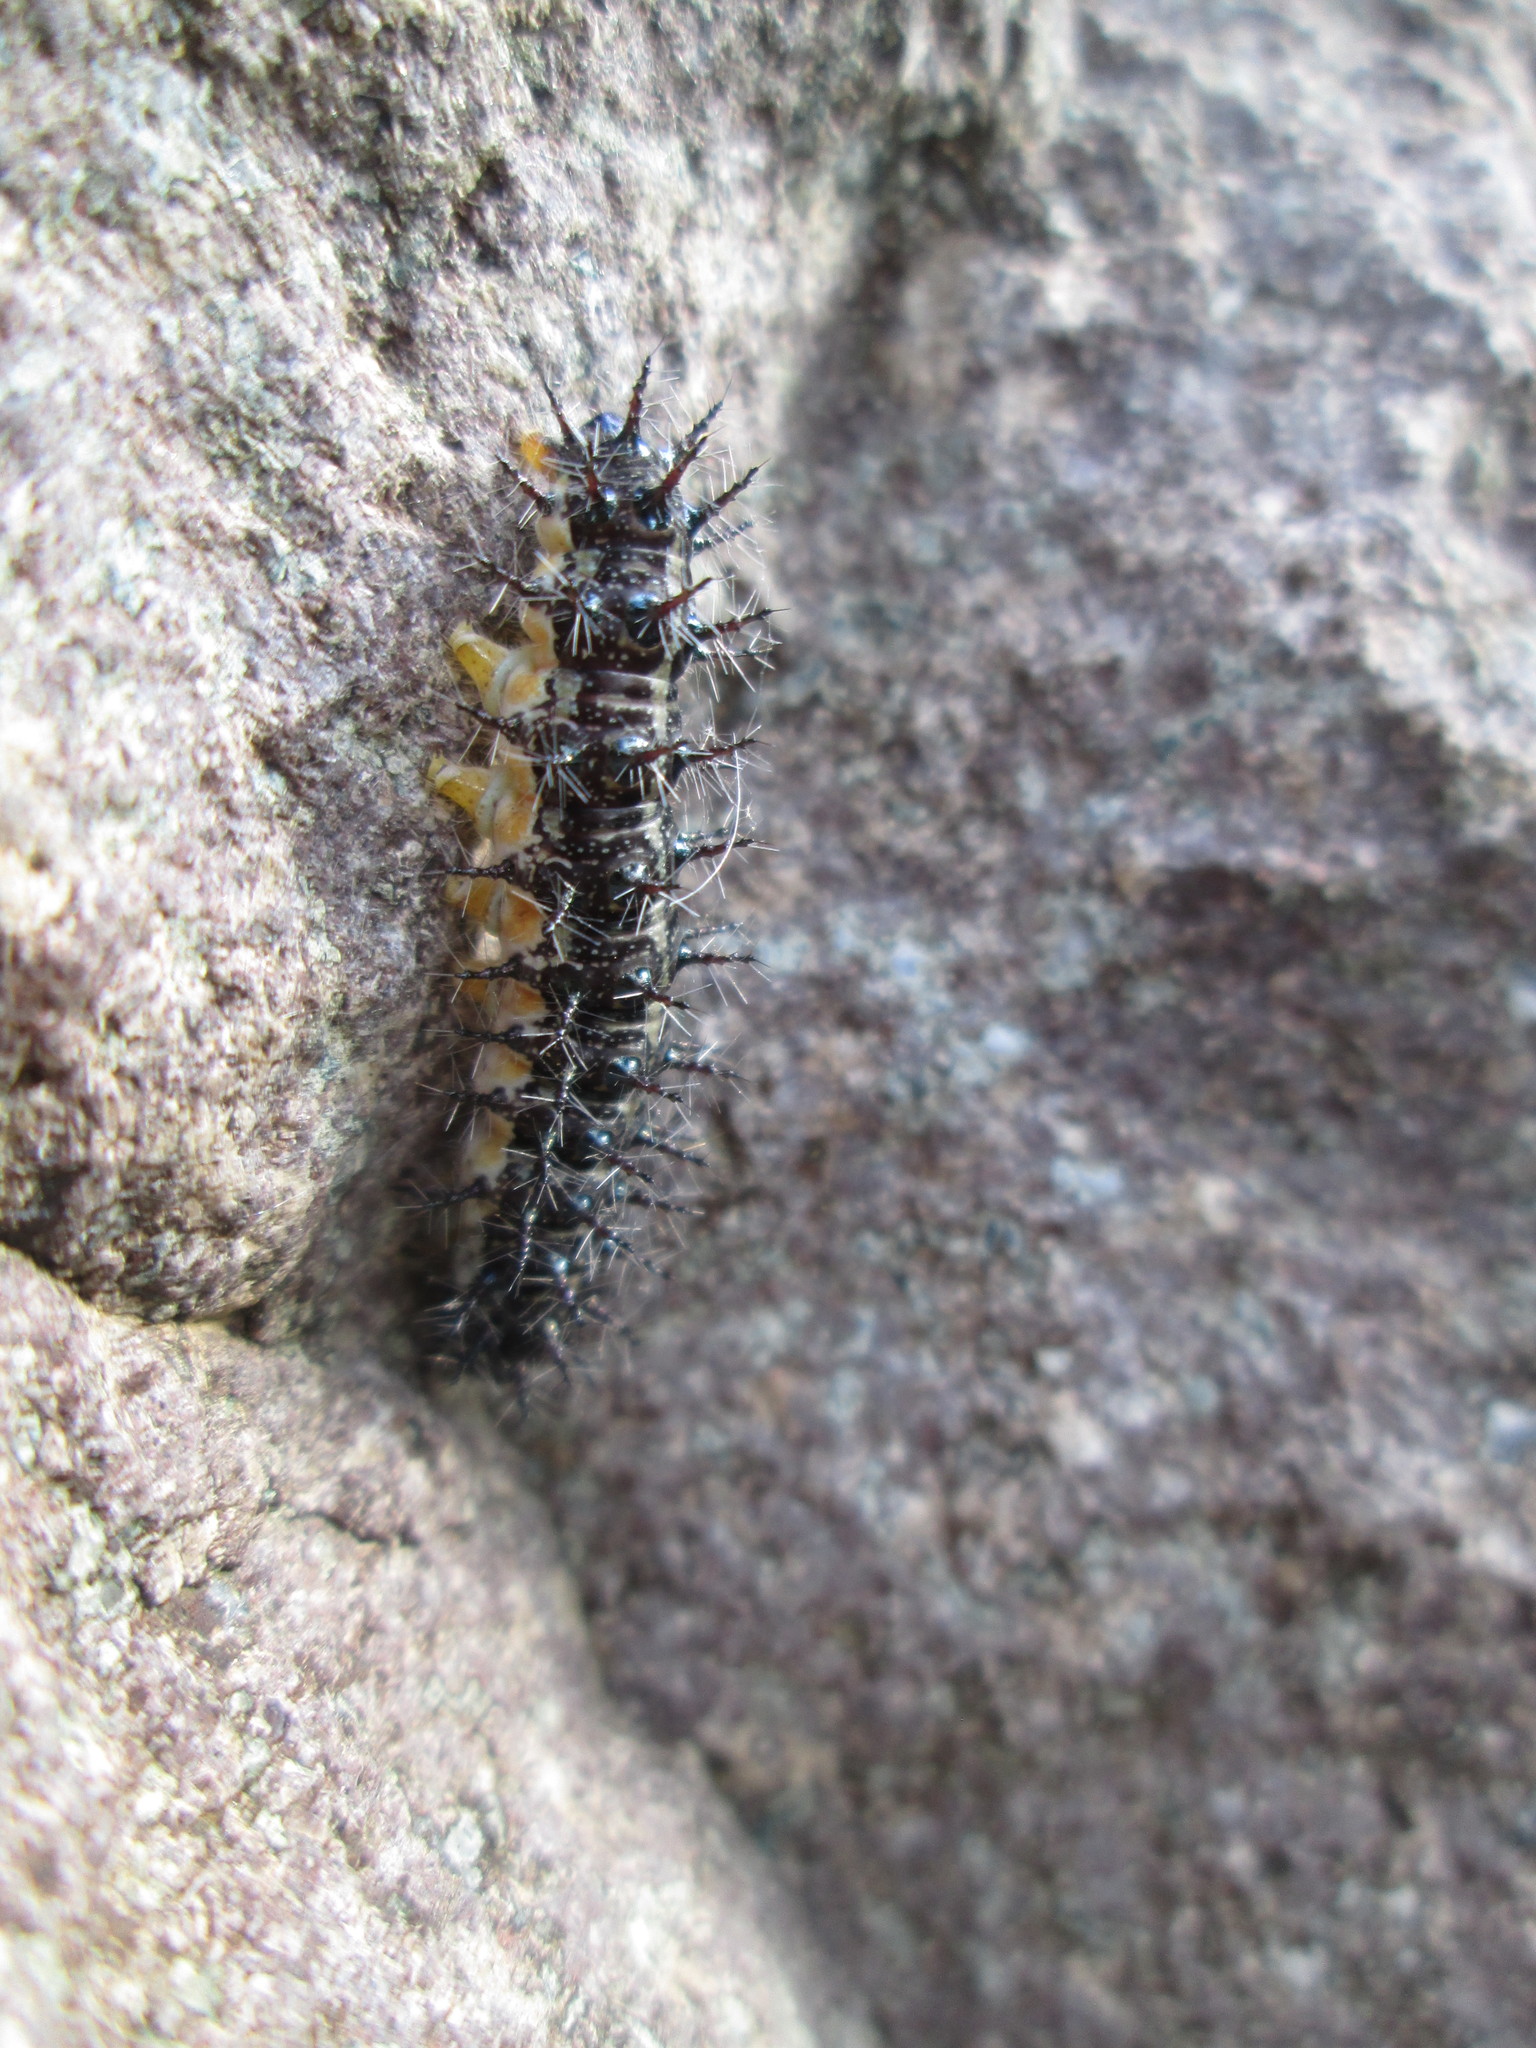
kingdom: Animalia
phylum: Arthropoda
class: Insecta
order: Lepidoptera
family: Nymphalidae
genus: Acraea
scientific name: Acraea horta
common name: Garden acraea
